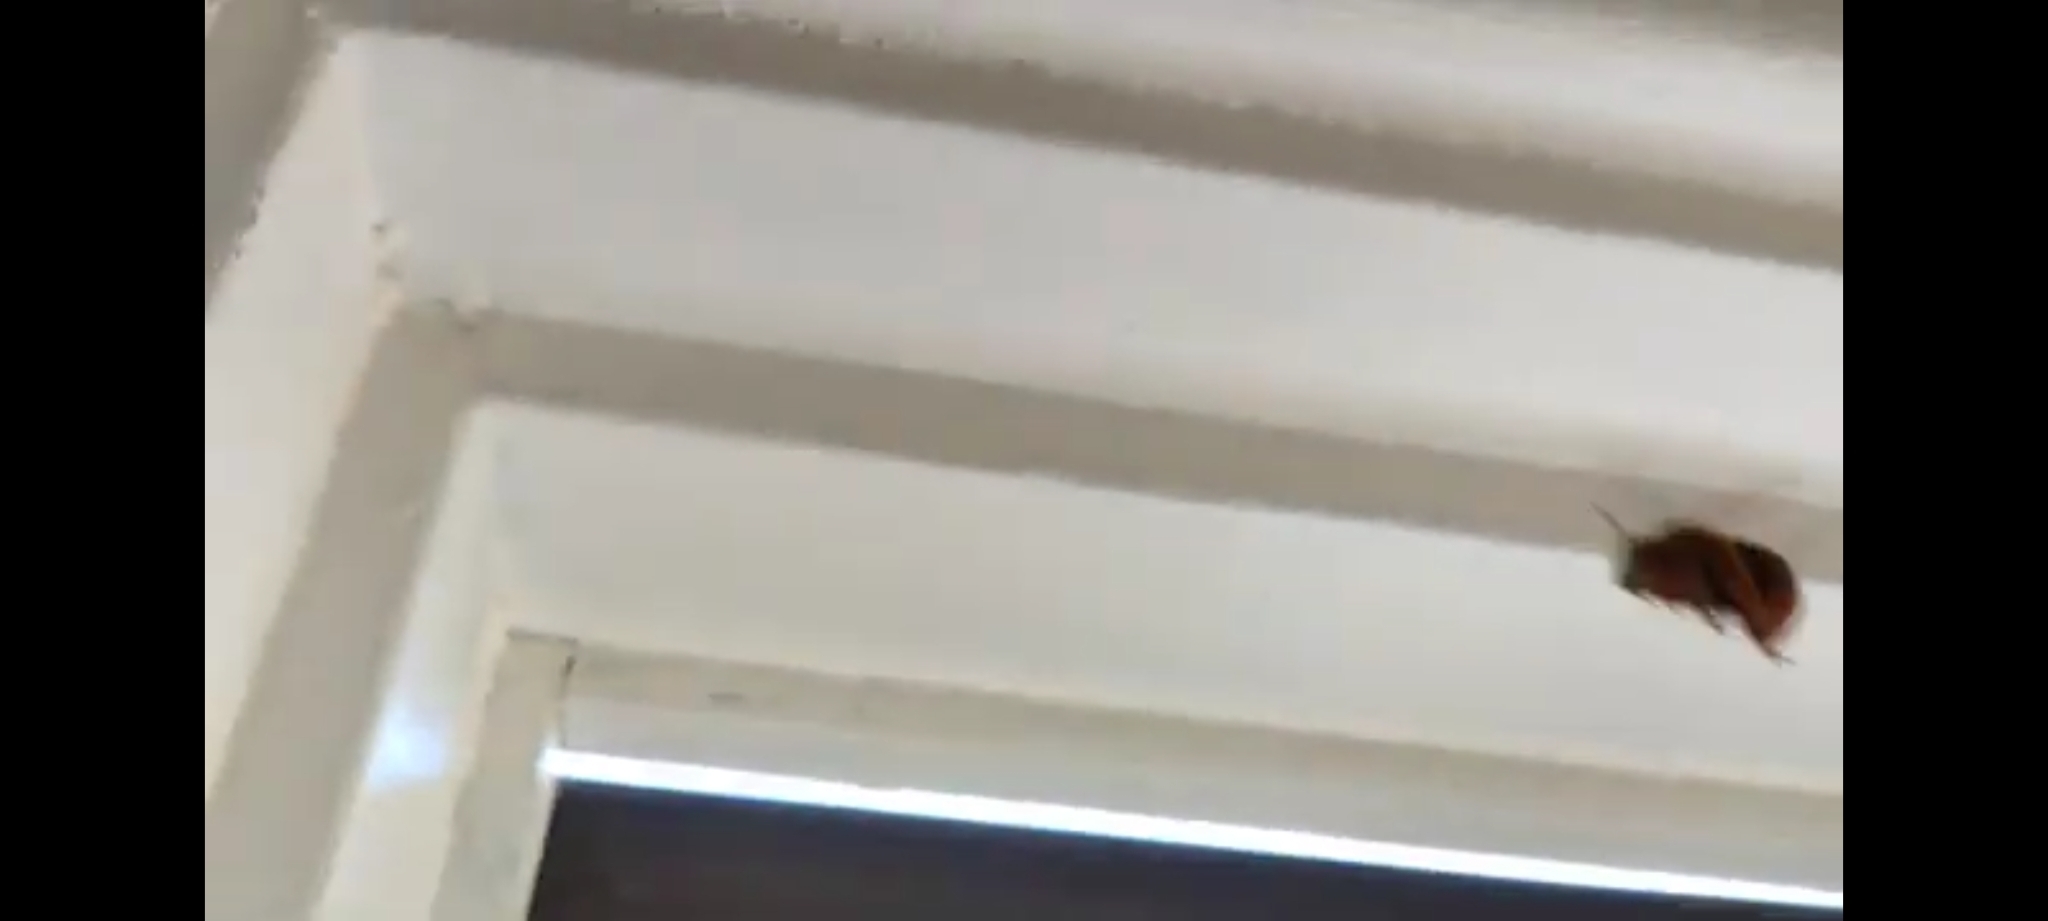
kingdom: Animalia
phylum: Arthropoda
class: Insecta
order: Hymenoptera
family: Apidae
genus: Amegilla
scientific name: Amegilla bombiformis
